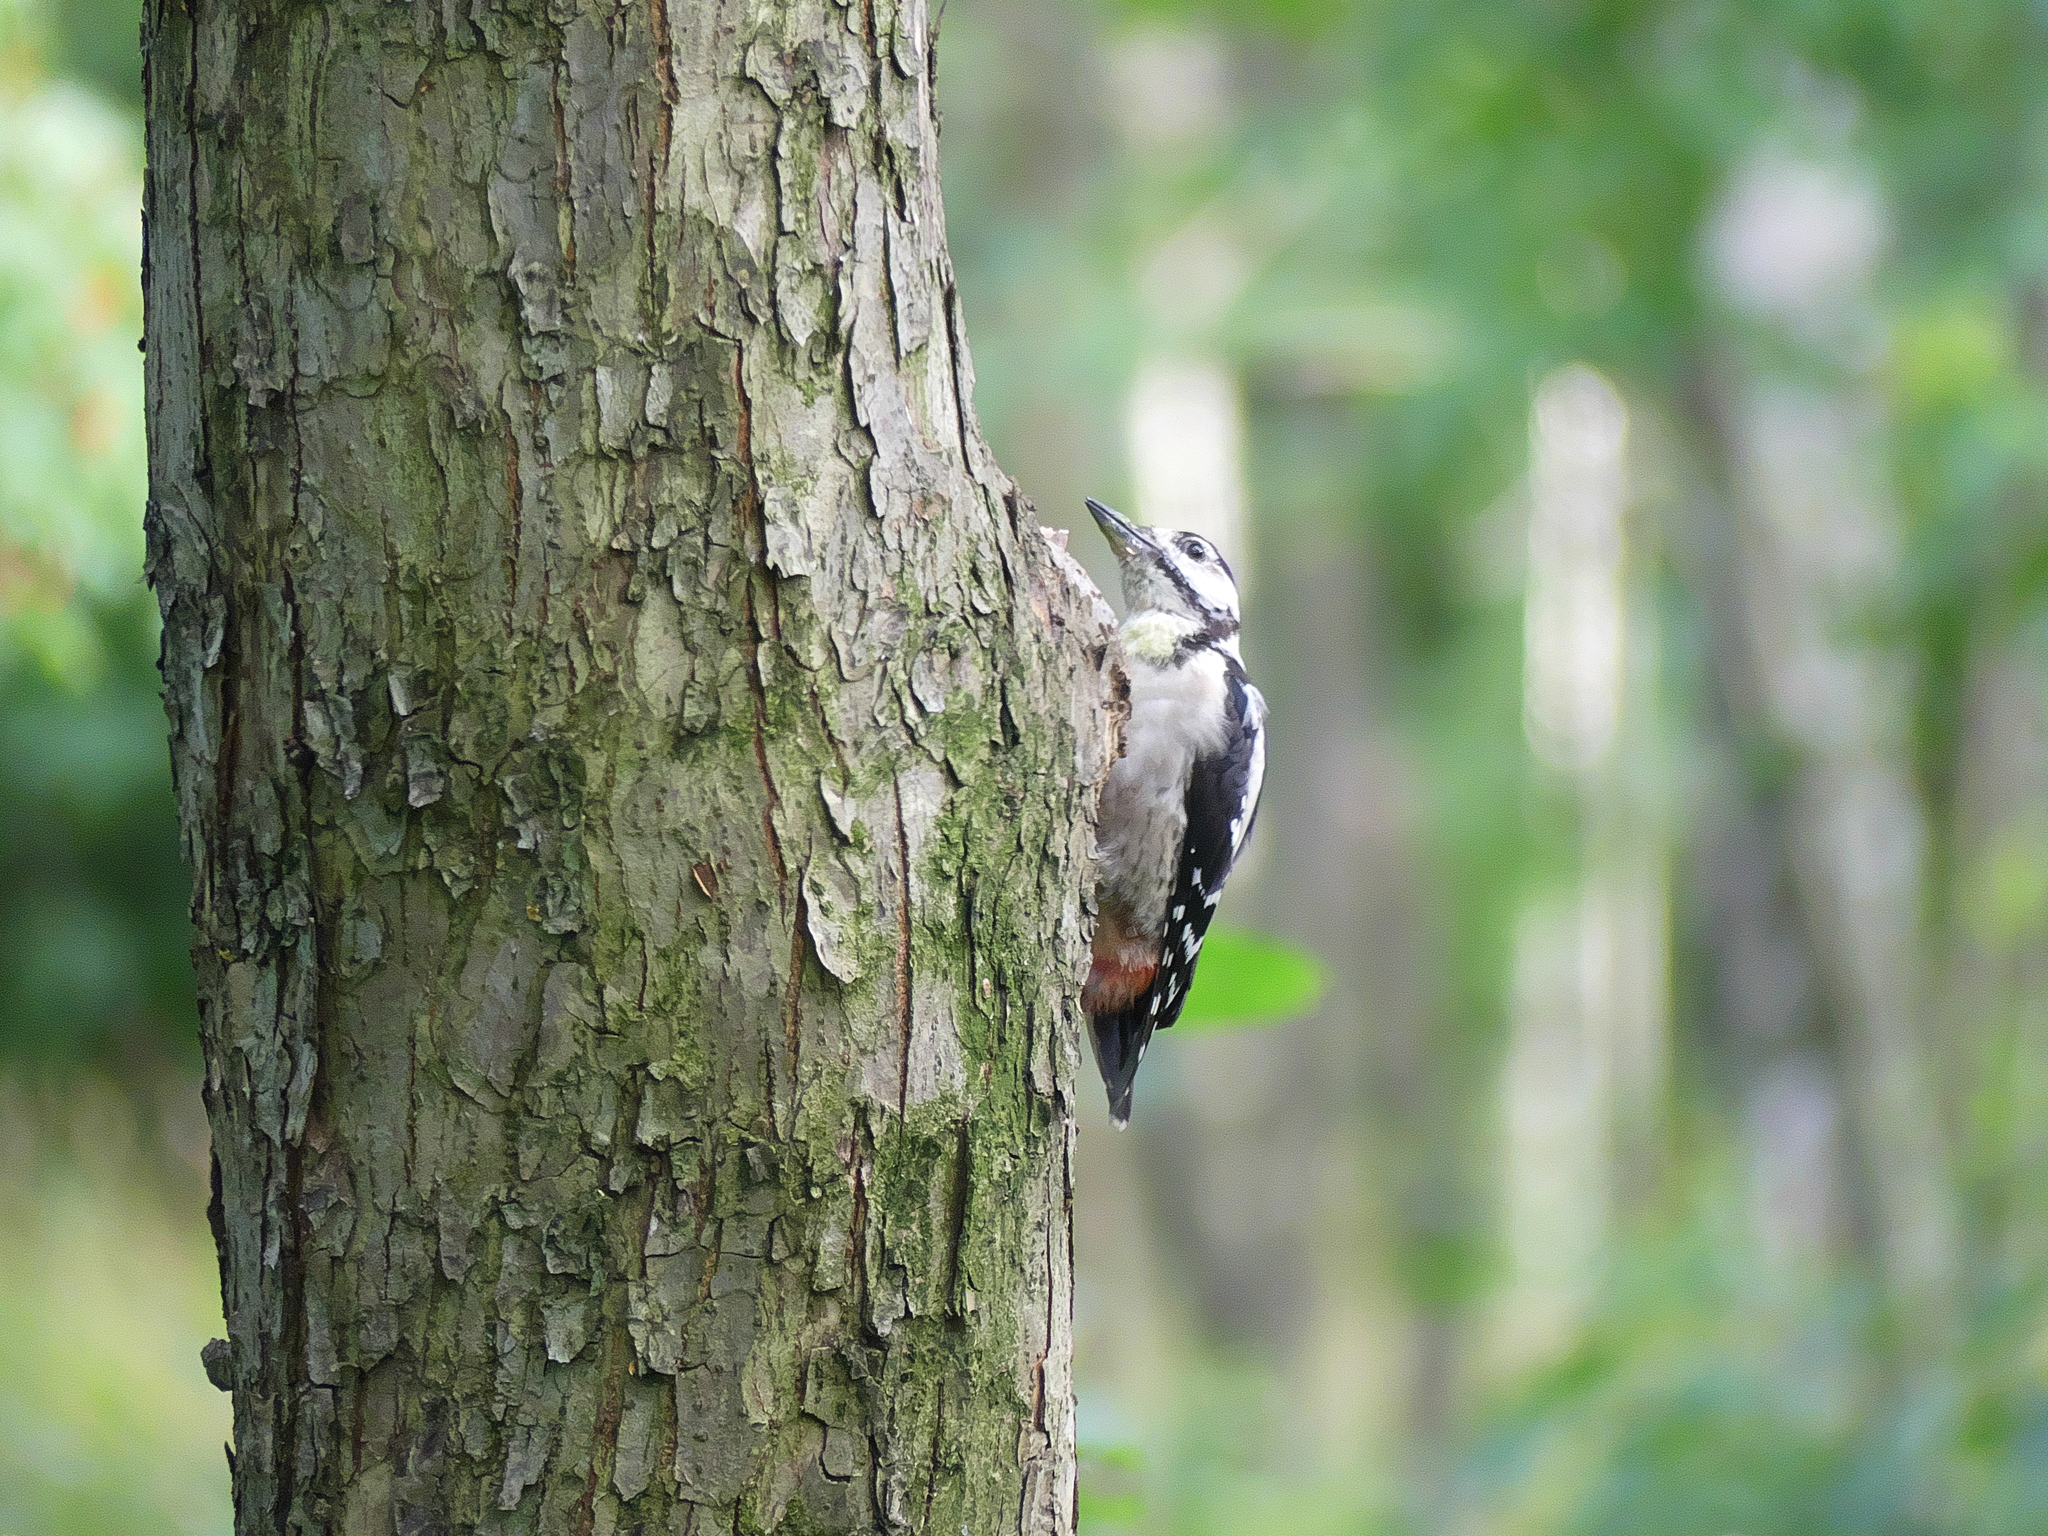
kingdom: Animalia
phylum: Chordata
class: Aves
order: Piciformes
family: Picidae
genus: Dendrocopos
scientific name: Dendrocopos major
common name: Great spotted woodpecker
